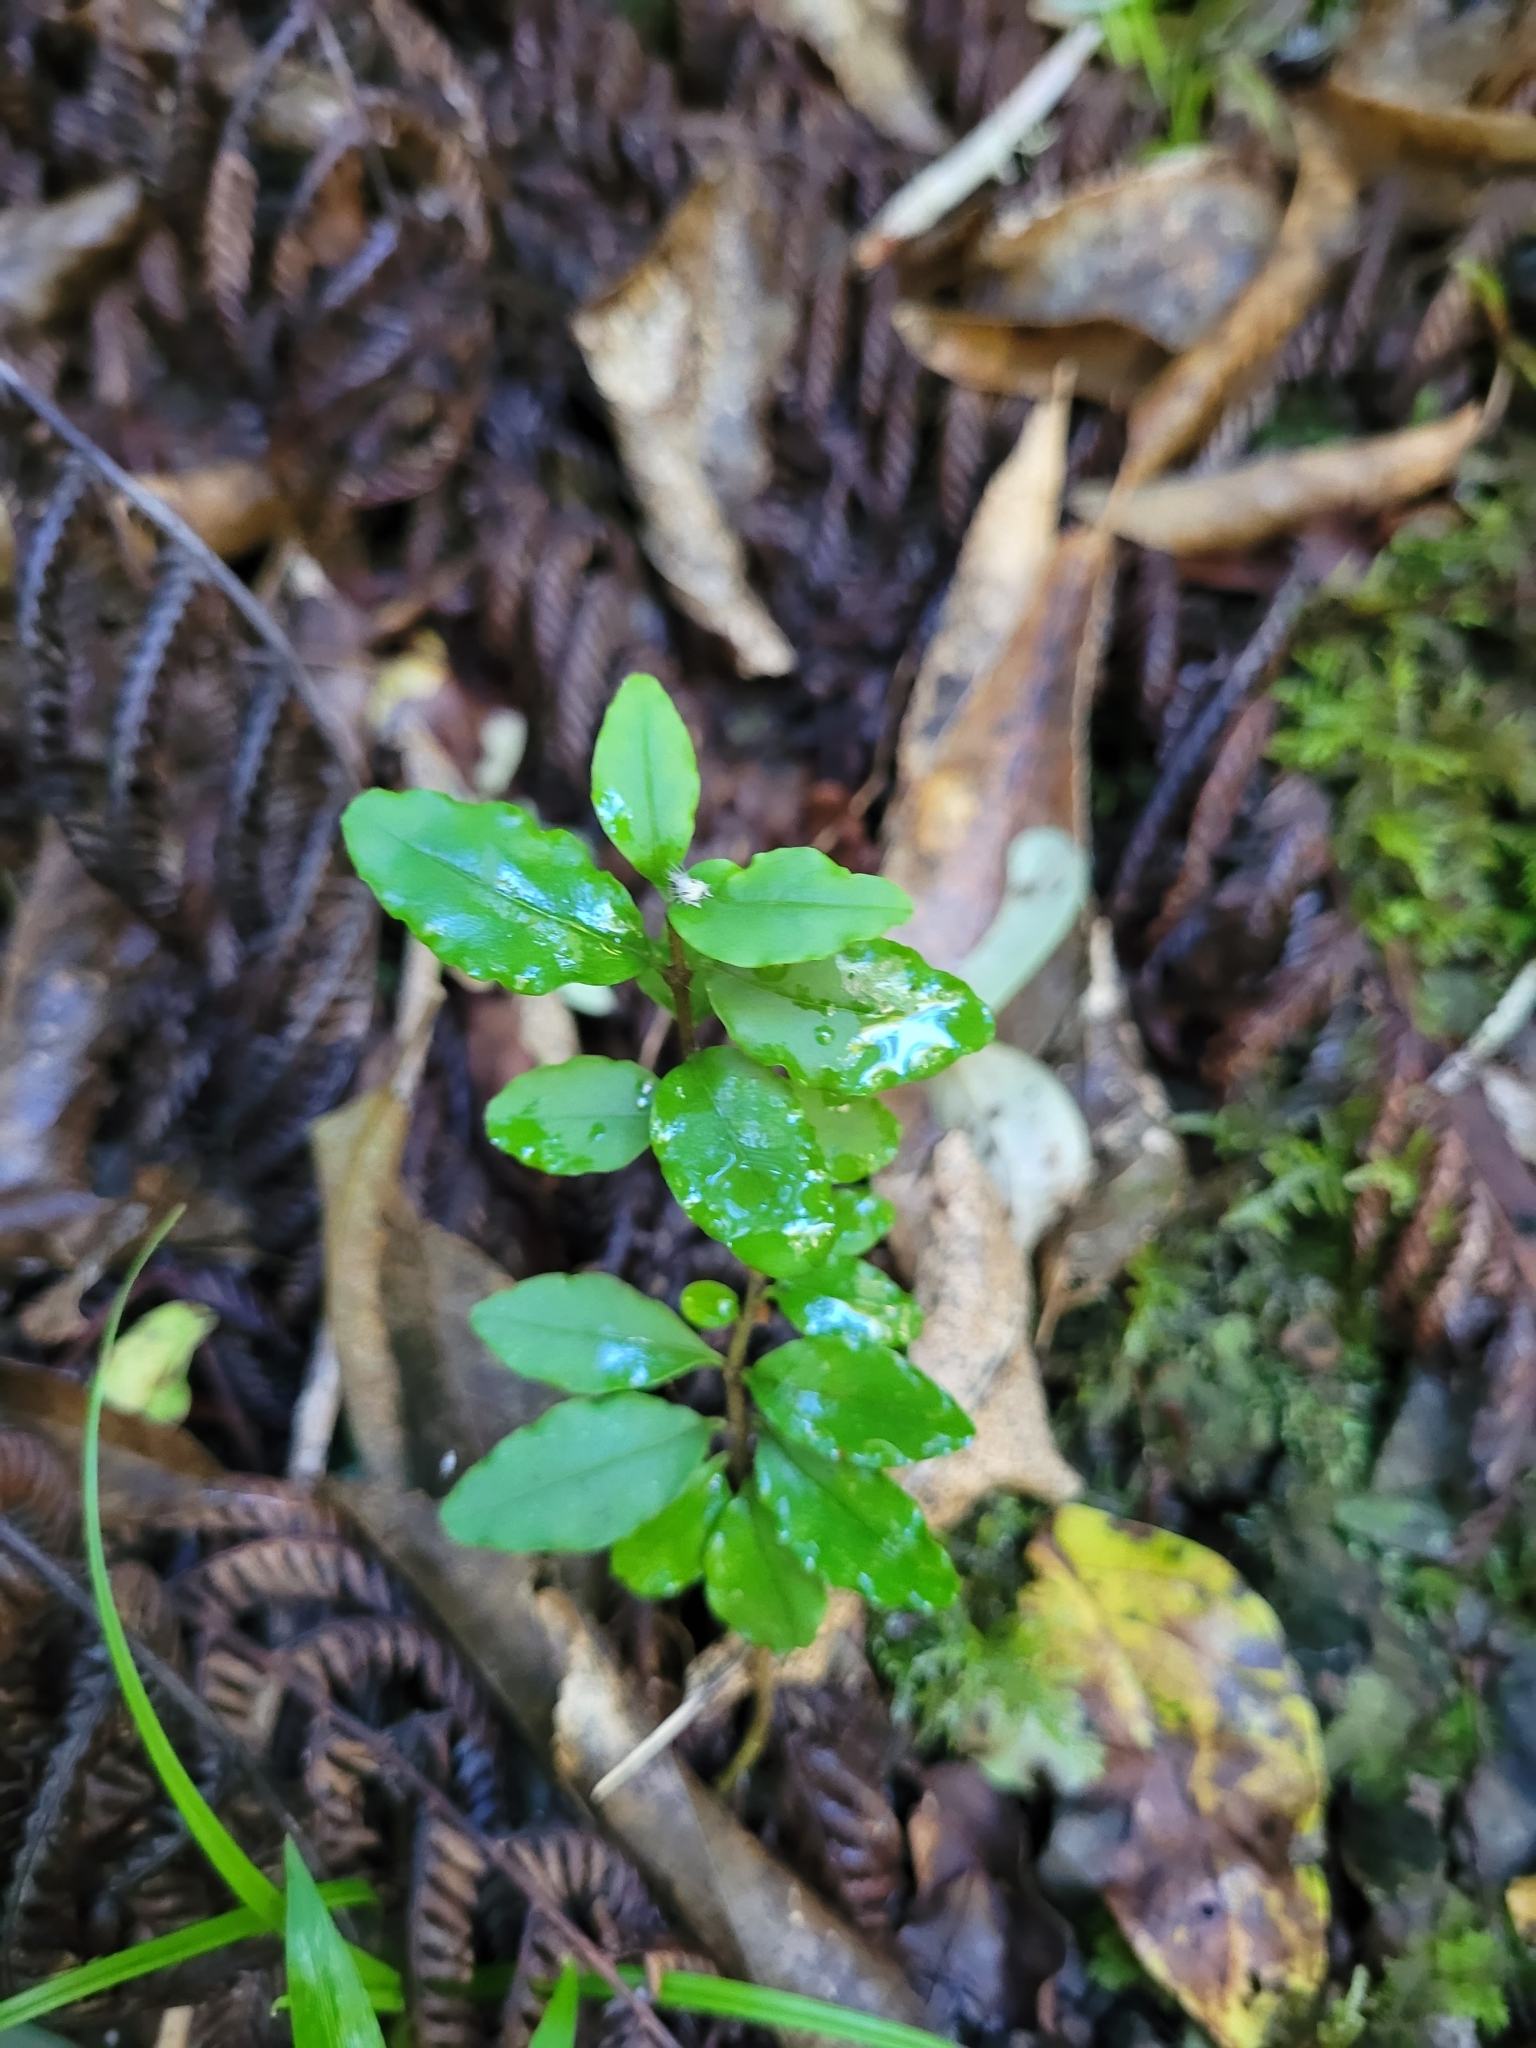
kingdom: Plantae
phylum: Tracheophyta
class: Magnoliopsida
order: Lamiales
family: Oleaceae
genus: Ligustrum
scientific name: Ligustrum sinense
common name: Chinese privet
